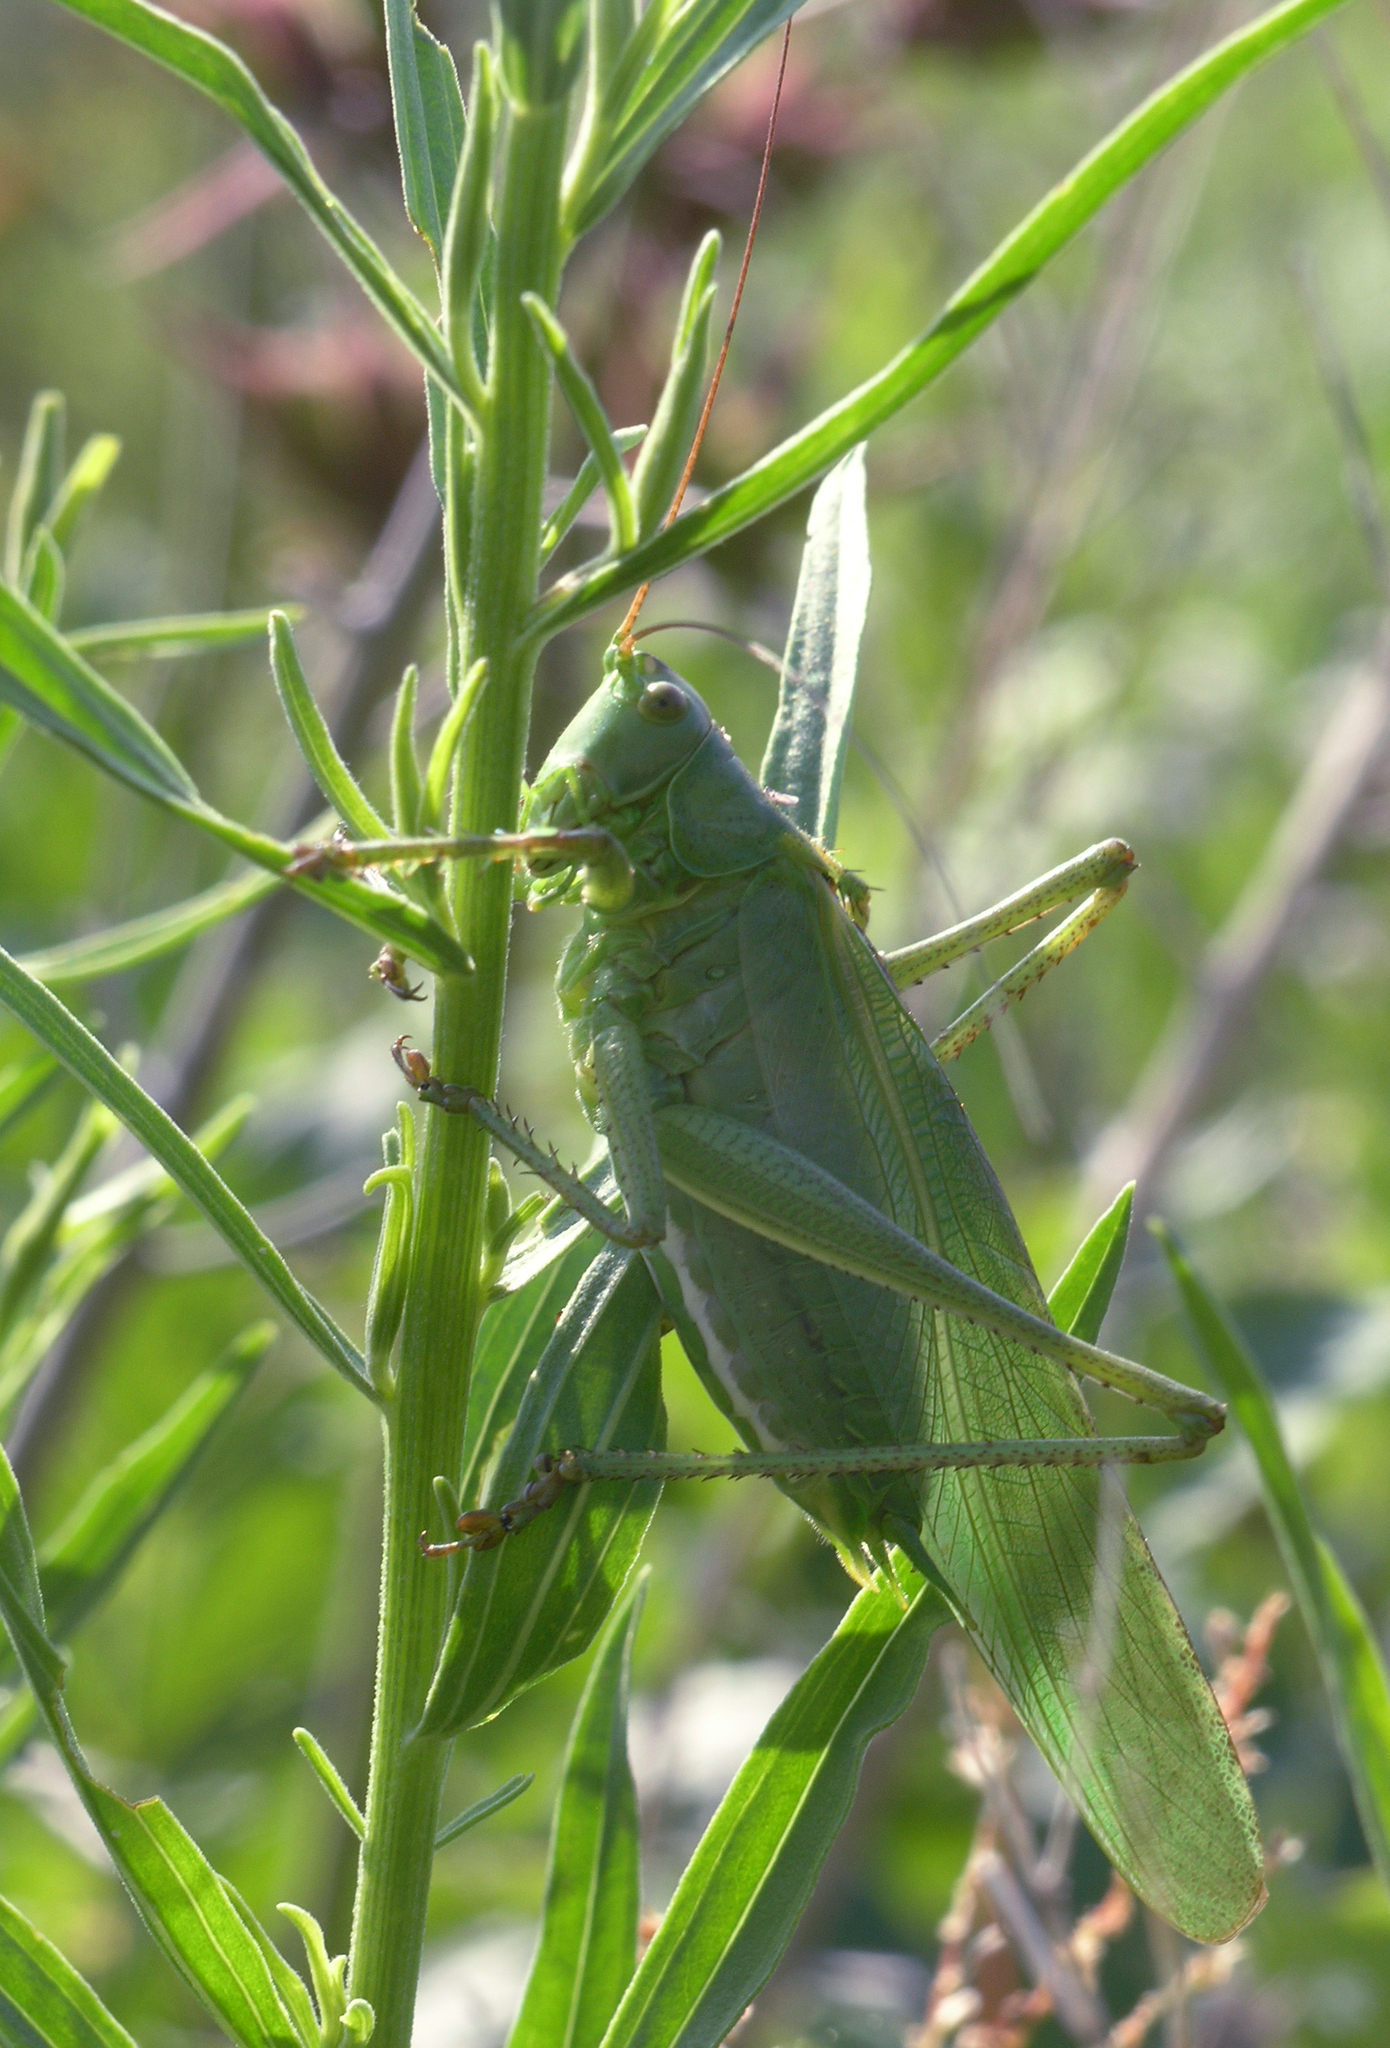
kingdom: Animalia
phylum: Arthropoda
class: Insecta
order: Orthoptera
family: Tettigoniidae
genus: Tettigonia
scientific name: Tettigonia viridissima
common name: Great green bush-cricket
